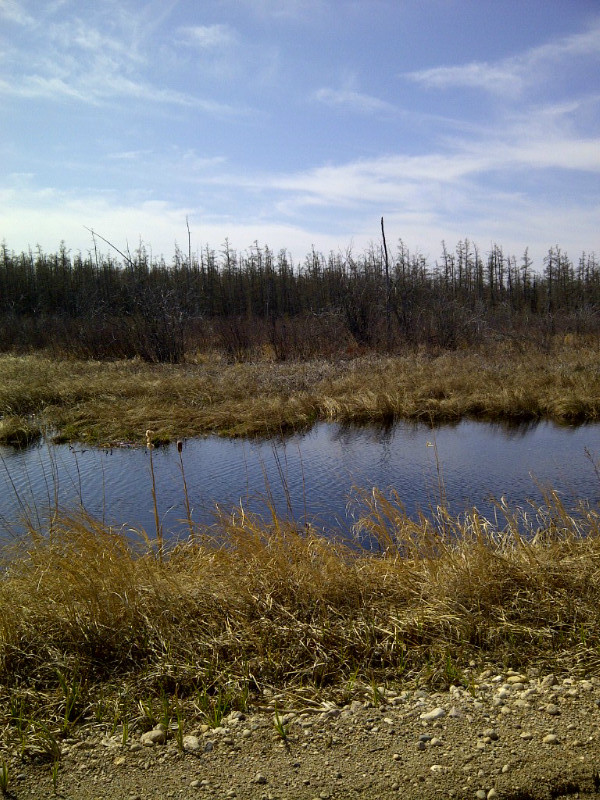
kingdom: Animalia
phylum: Chordata
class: Amphibia
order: Anura
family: Hylidae
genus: Pseudacris
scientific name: Pseudacris crucifer
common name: Spring peeper
